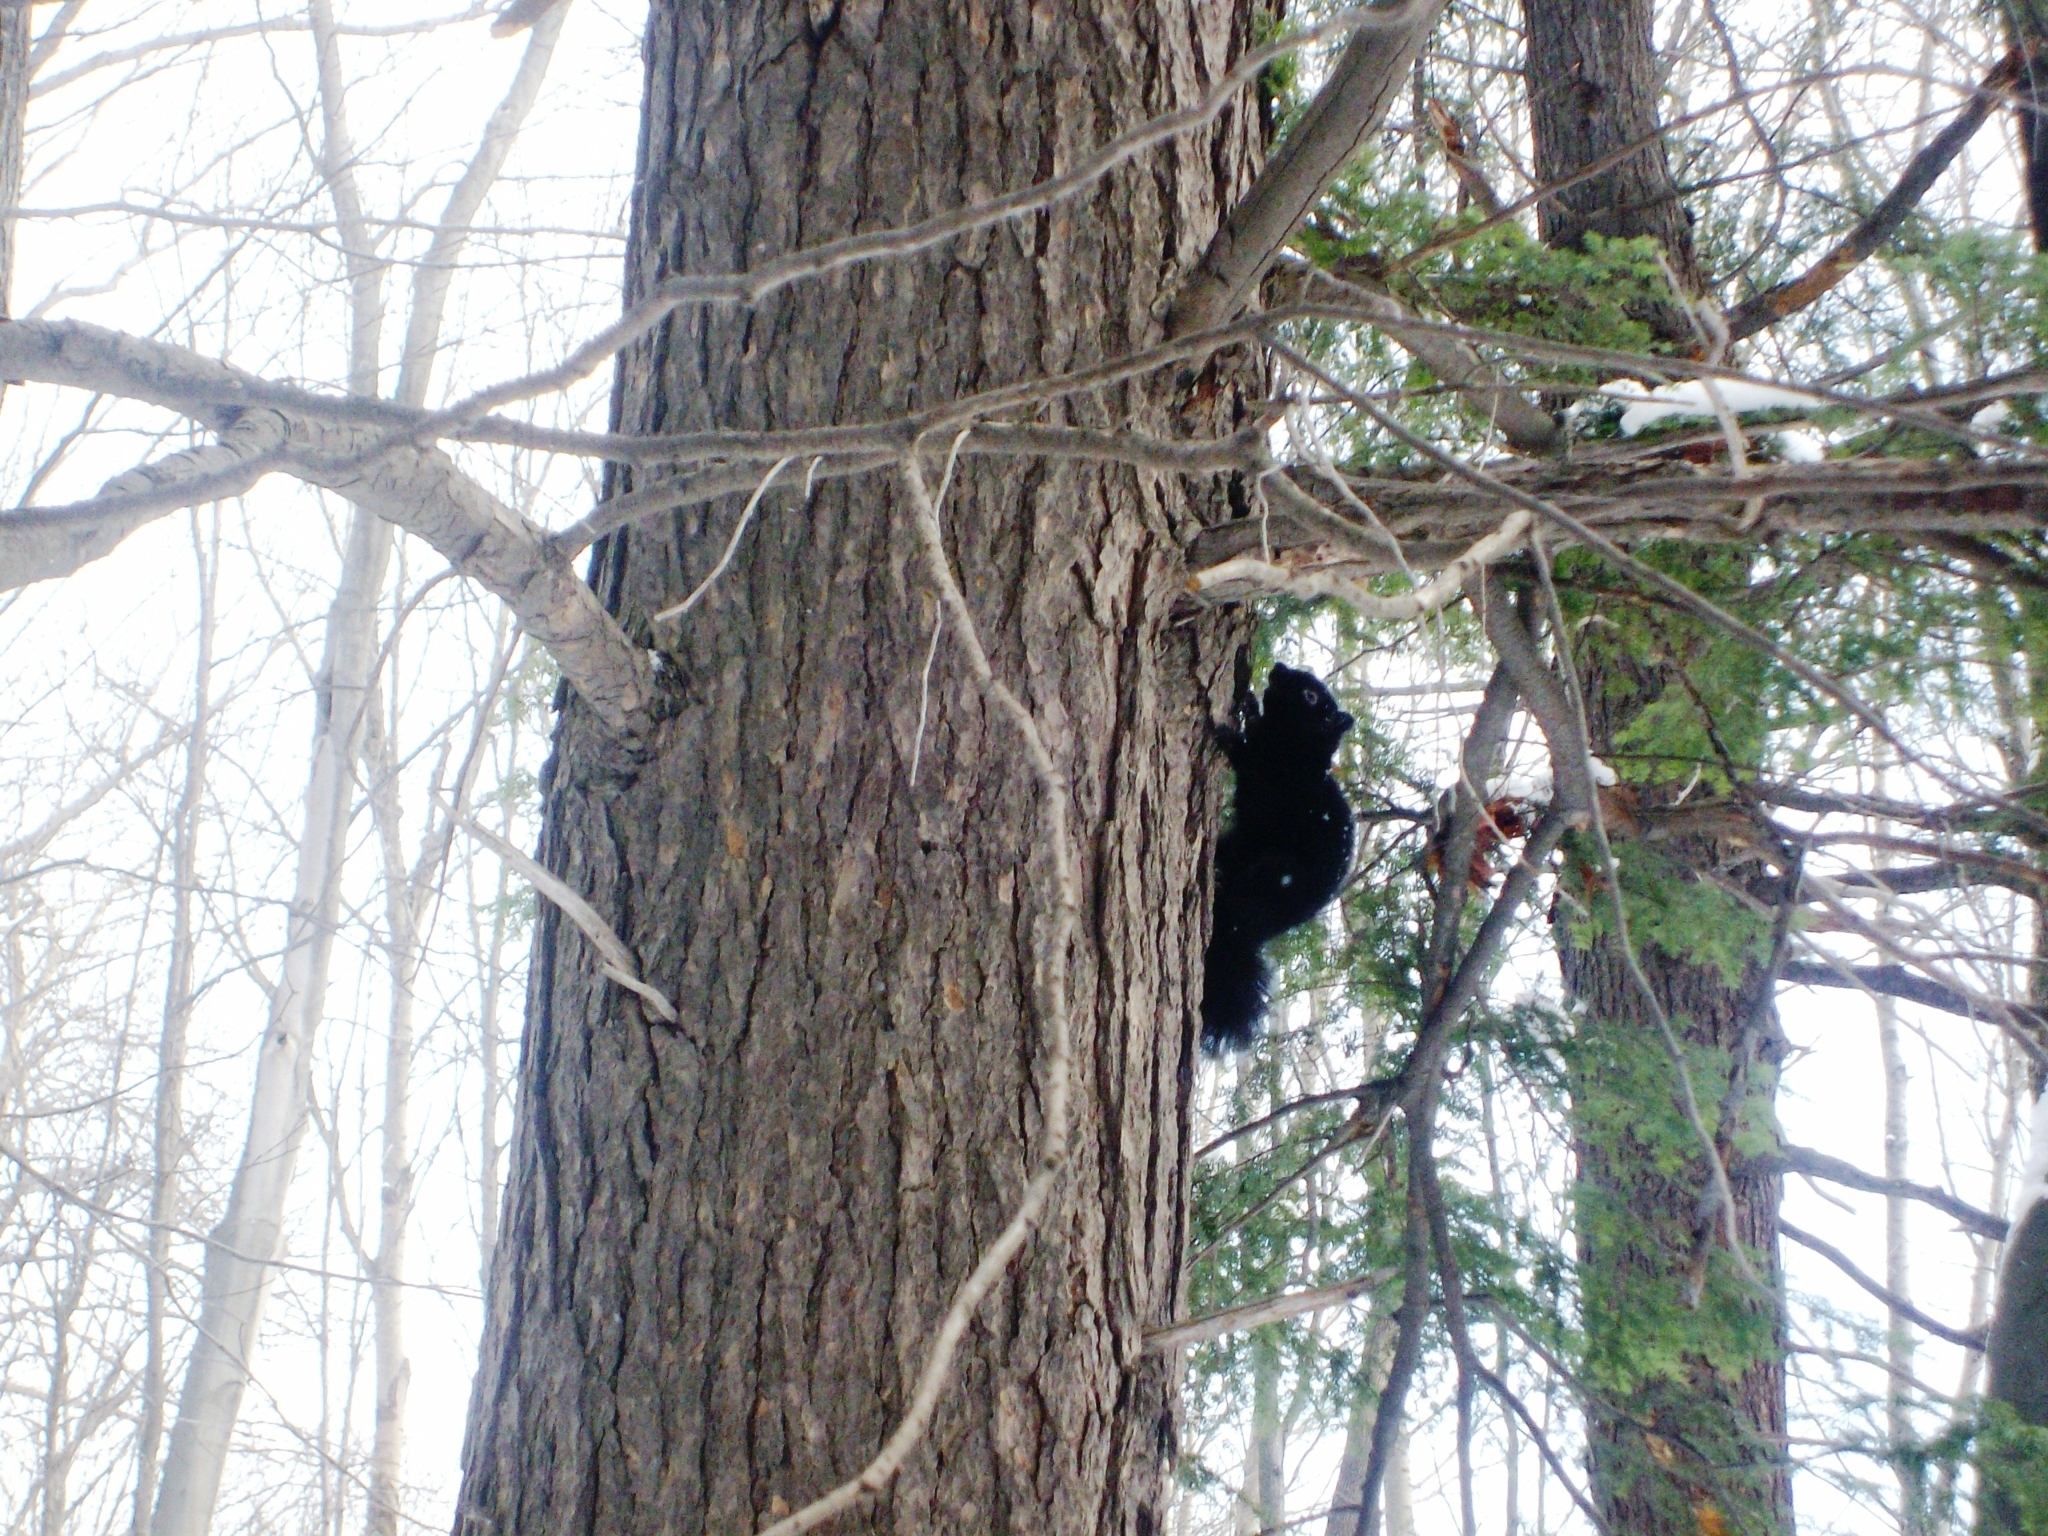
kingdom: Animalia
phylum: Chordata
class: Mammalia
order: Rodentia
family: Sciuridae
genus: Sciurus
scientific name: Sciurus carolinensis
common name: Eastern gray squirrel
